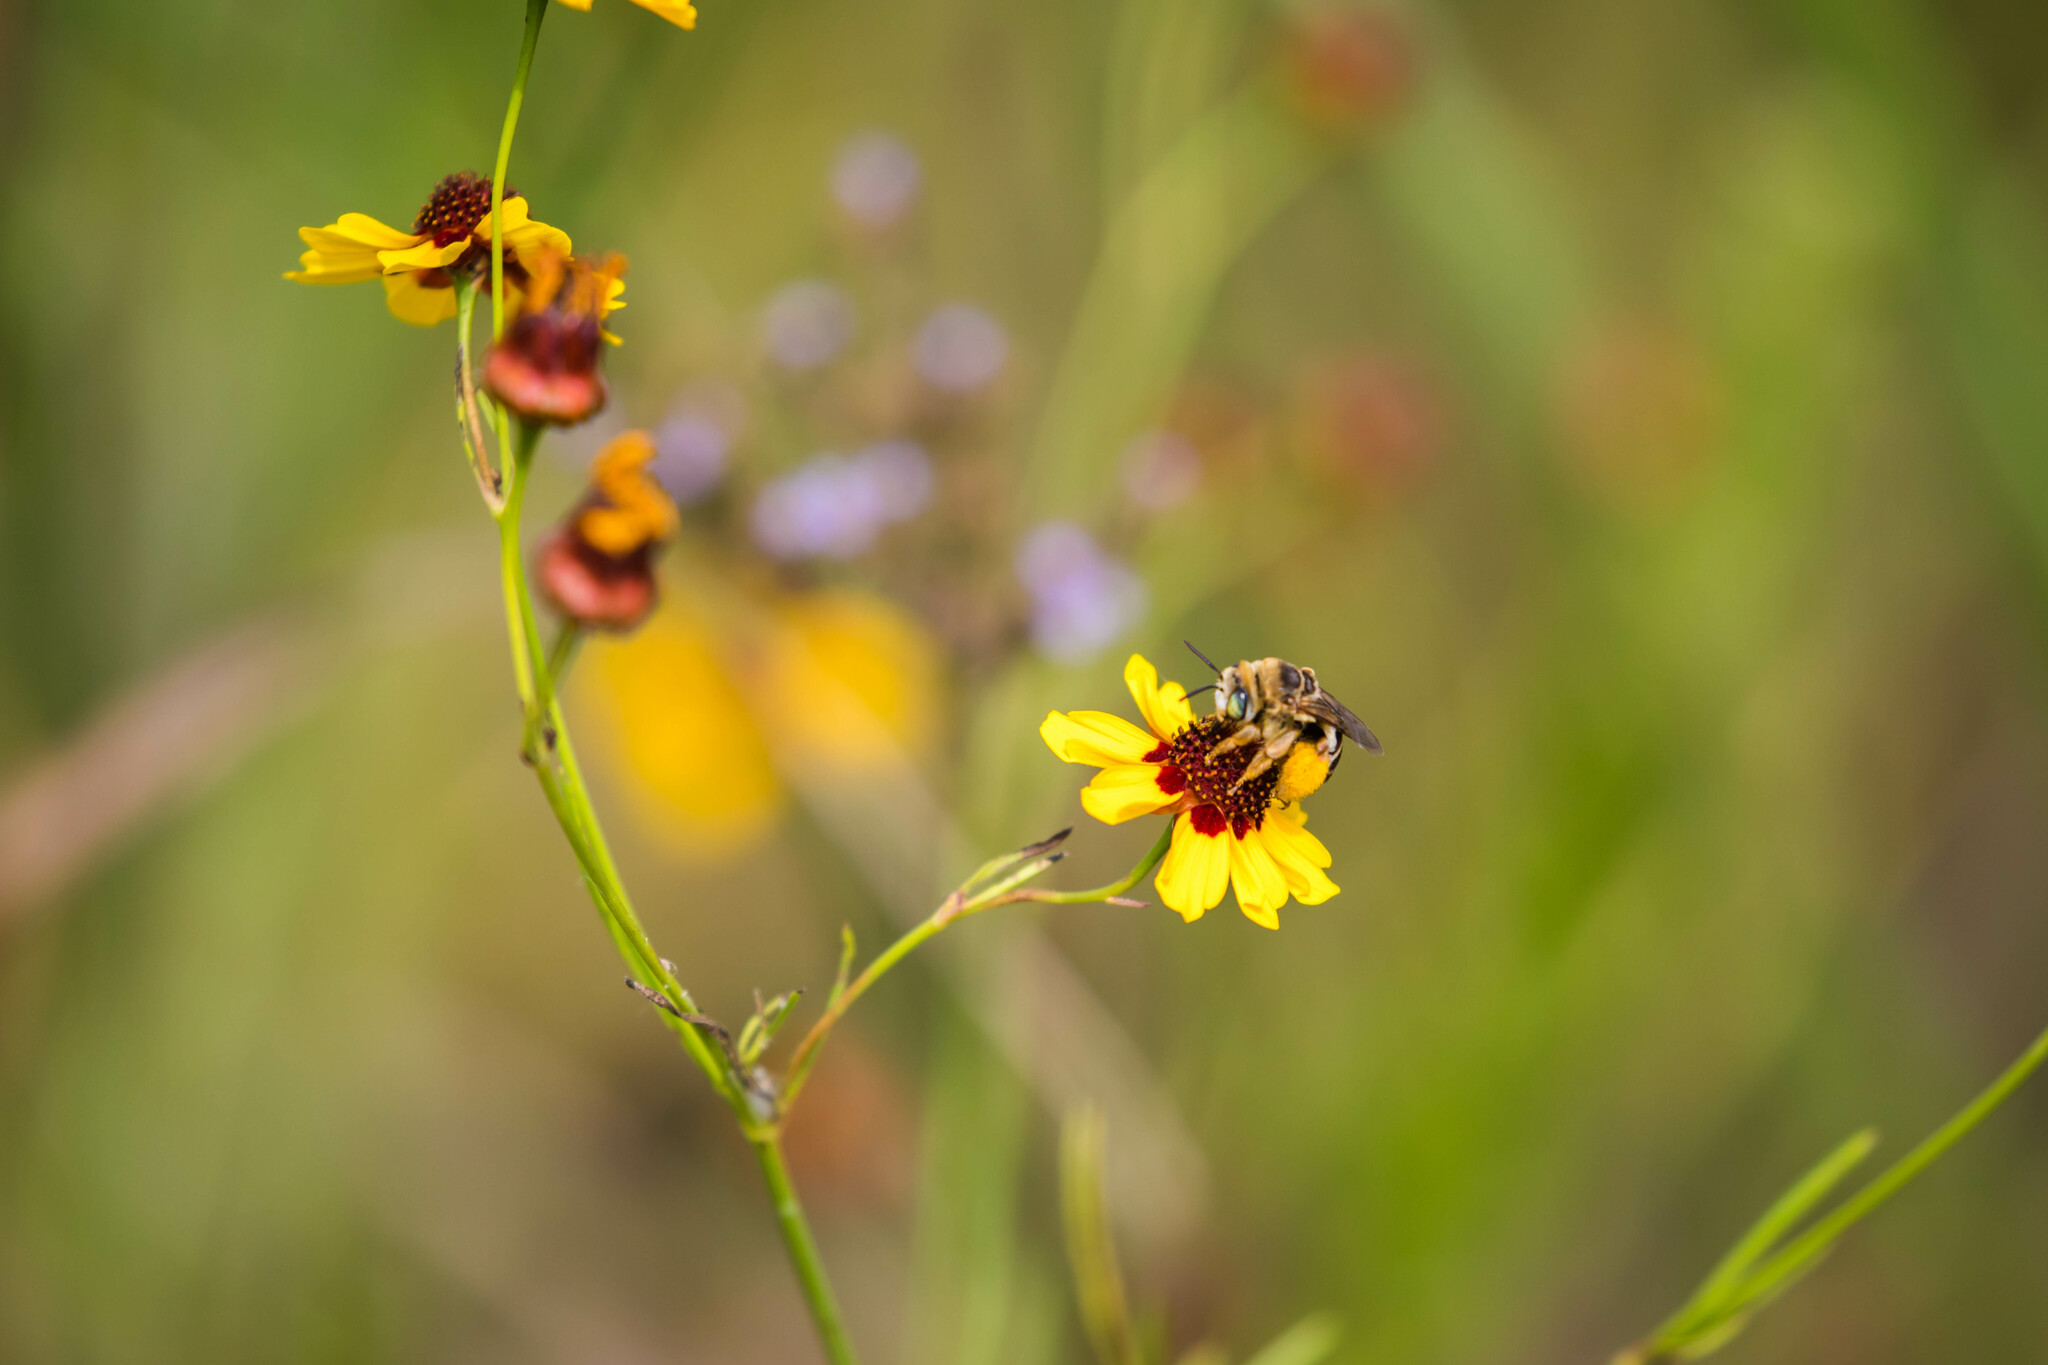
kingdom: Animalia
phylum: Arthropoda
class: Insecta
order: Hymenoptera
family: Apidae
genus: Svastra
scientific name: Svastra petulca
